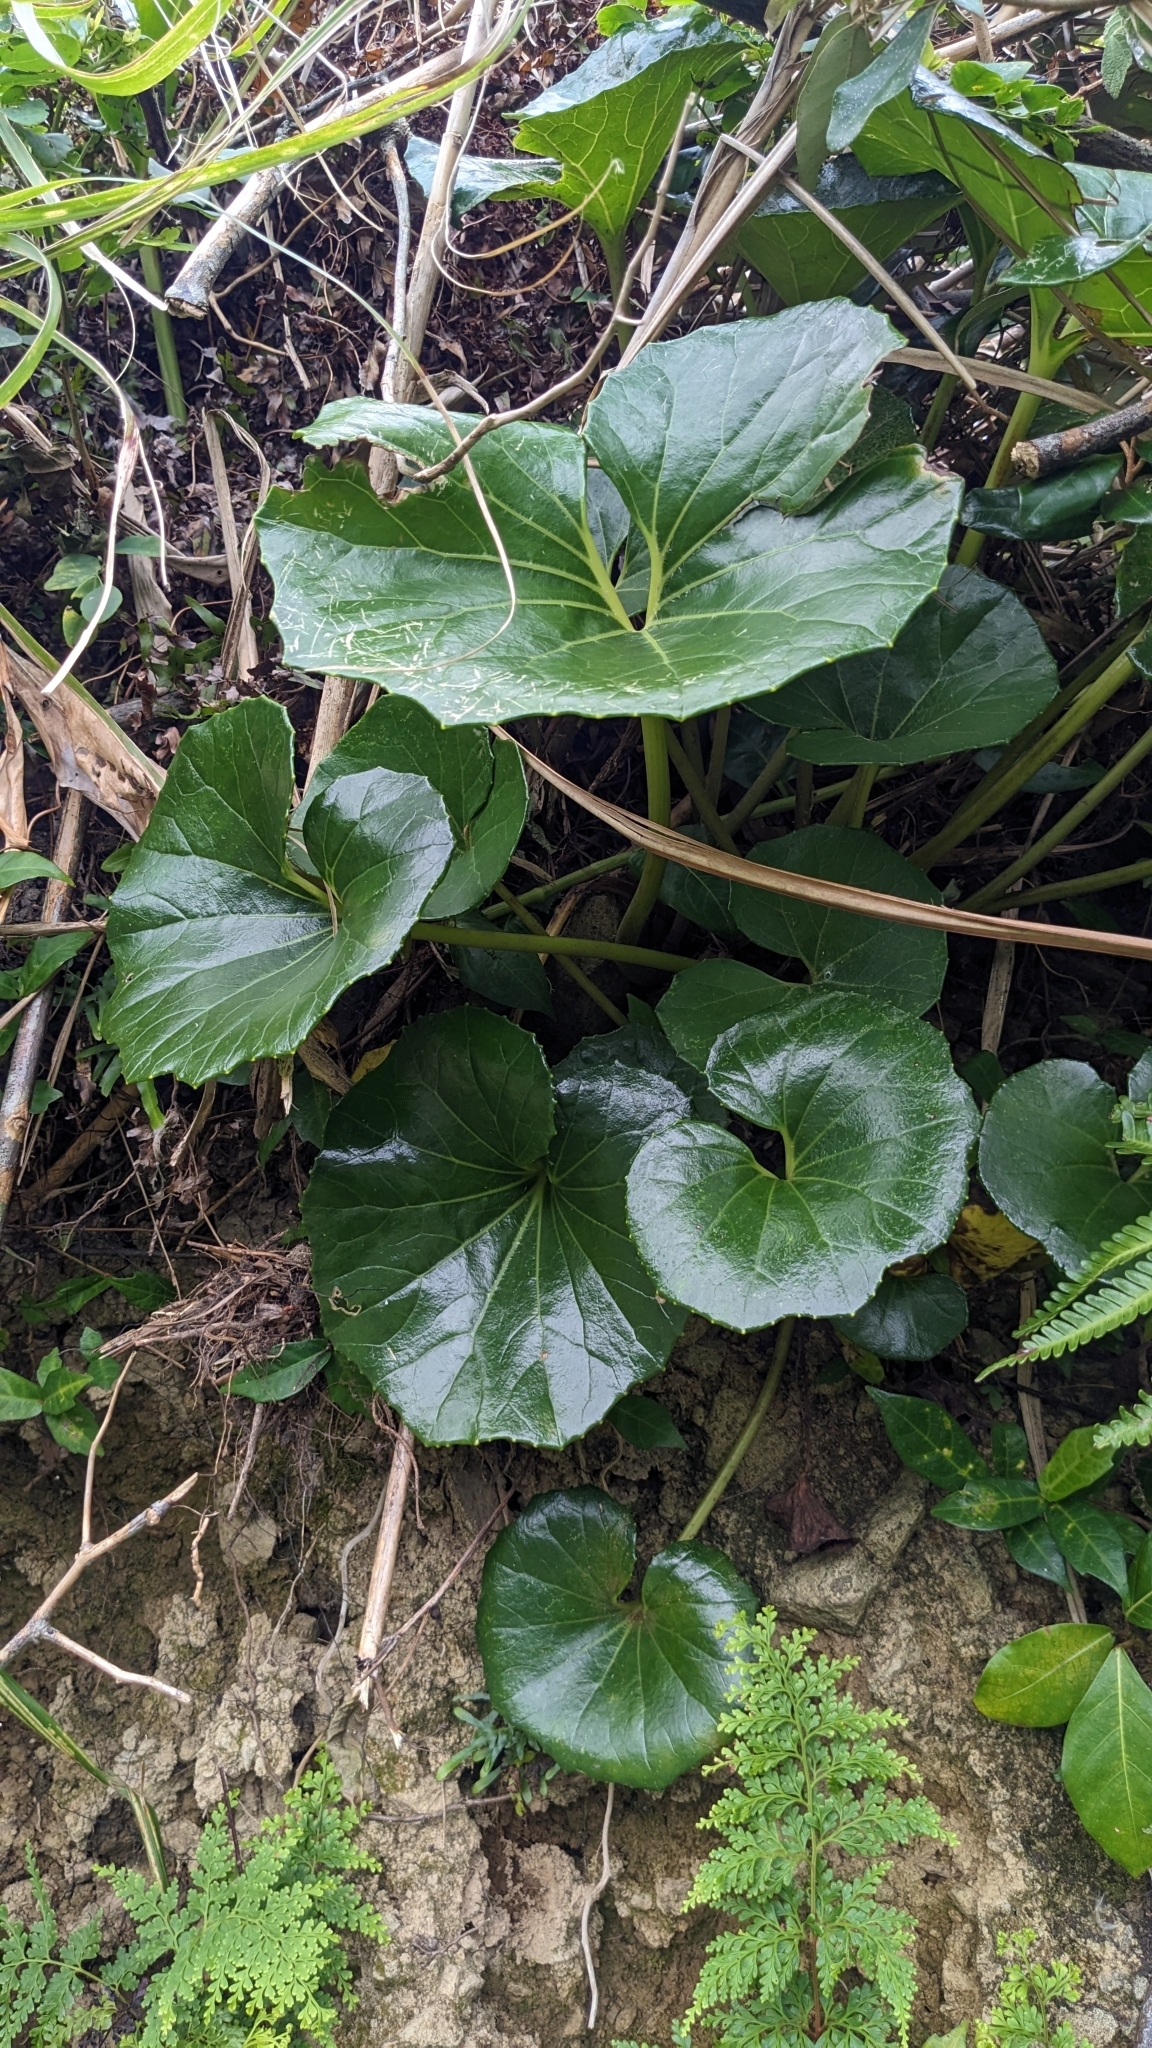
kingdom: Plantae
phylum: Tracheophyta
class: Magnoliopsida
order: Asterales
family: Asteraceae
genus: Farfugium
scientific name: Farfugium japonicum
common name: Leopardplant
